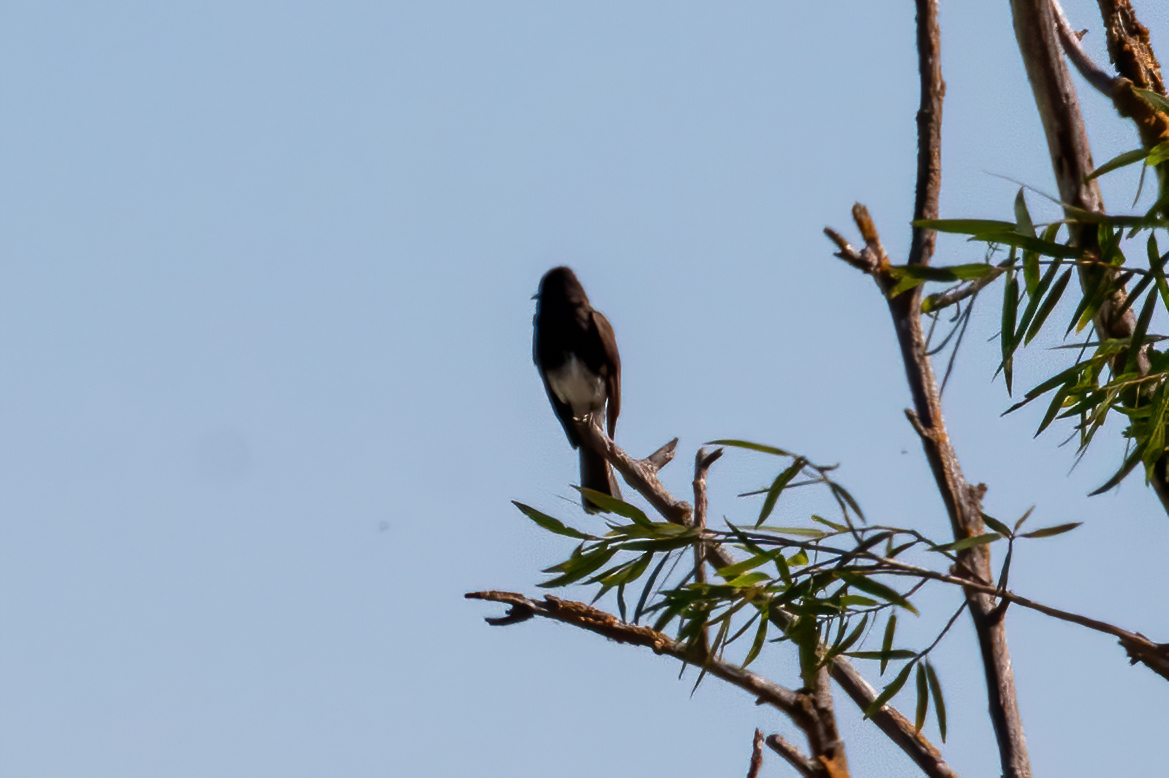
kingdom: Animalia
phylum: Chordata
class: Aves
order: Passeriformes
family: Tyrannidae
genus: Sayornis
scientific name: Sayornis nigricans
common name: Black phoebe
